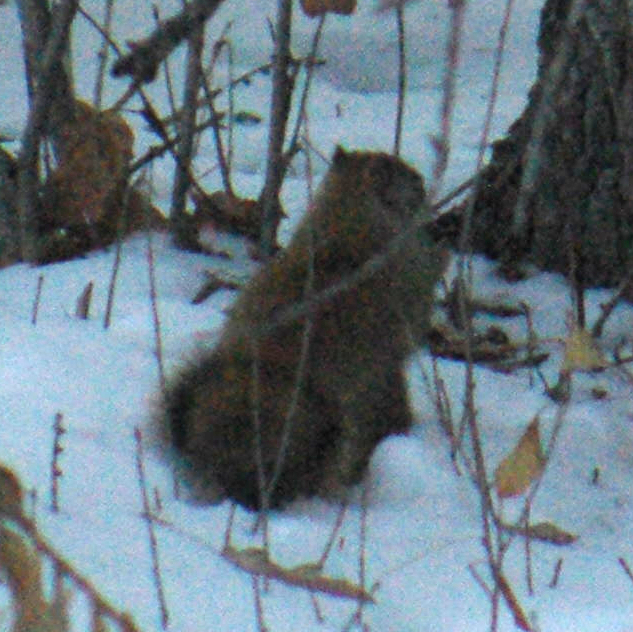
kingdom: Animalia
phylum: Chordata
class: Mammalia
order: Rodentia
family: Sciuridae
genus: Tamiasciurus
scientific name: Tamiasciurus hudsonicus
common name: Red squirrel
